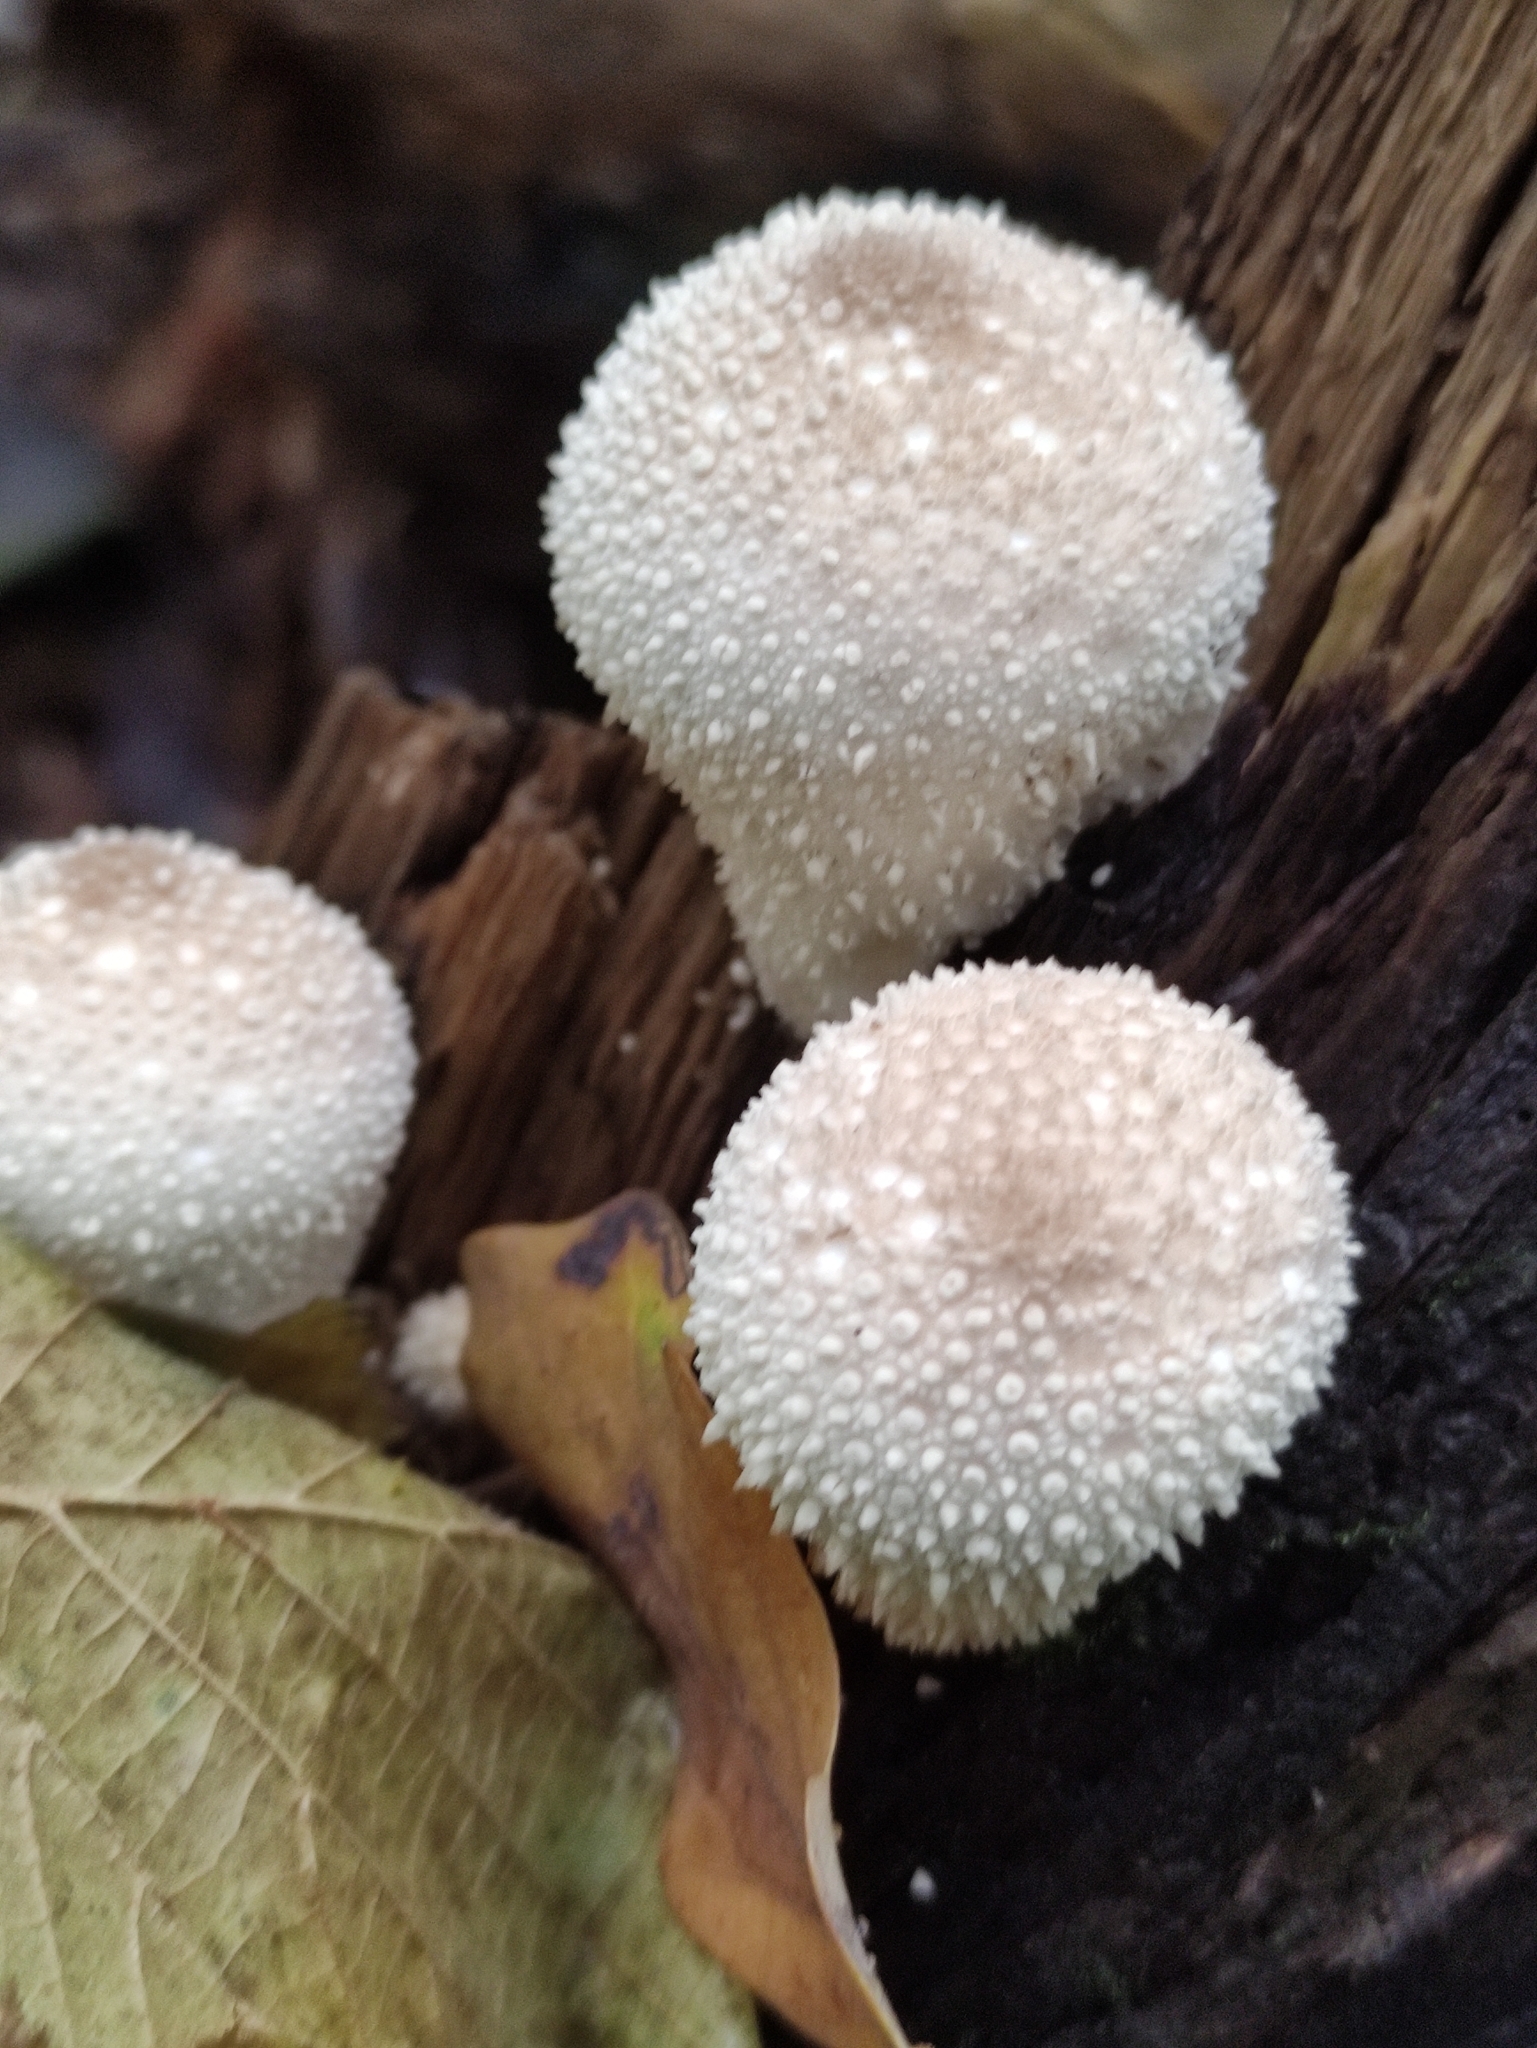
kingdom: Fungi
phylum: Basidiomycota
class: Agaricomycetes
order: Agaricales
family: Lycoperdaceae
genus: Lycoperdon
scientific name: Lycoperdon perlatum
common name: Common puffball
